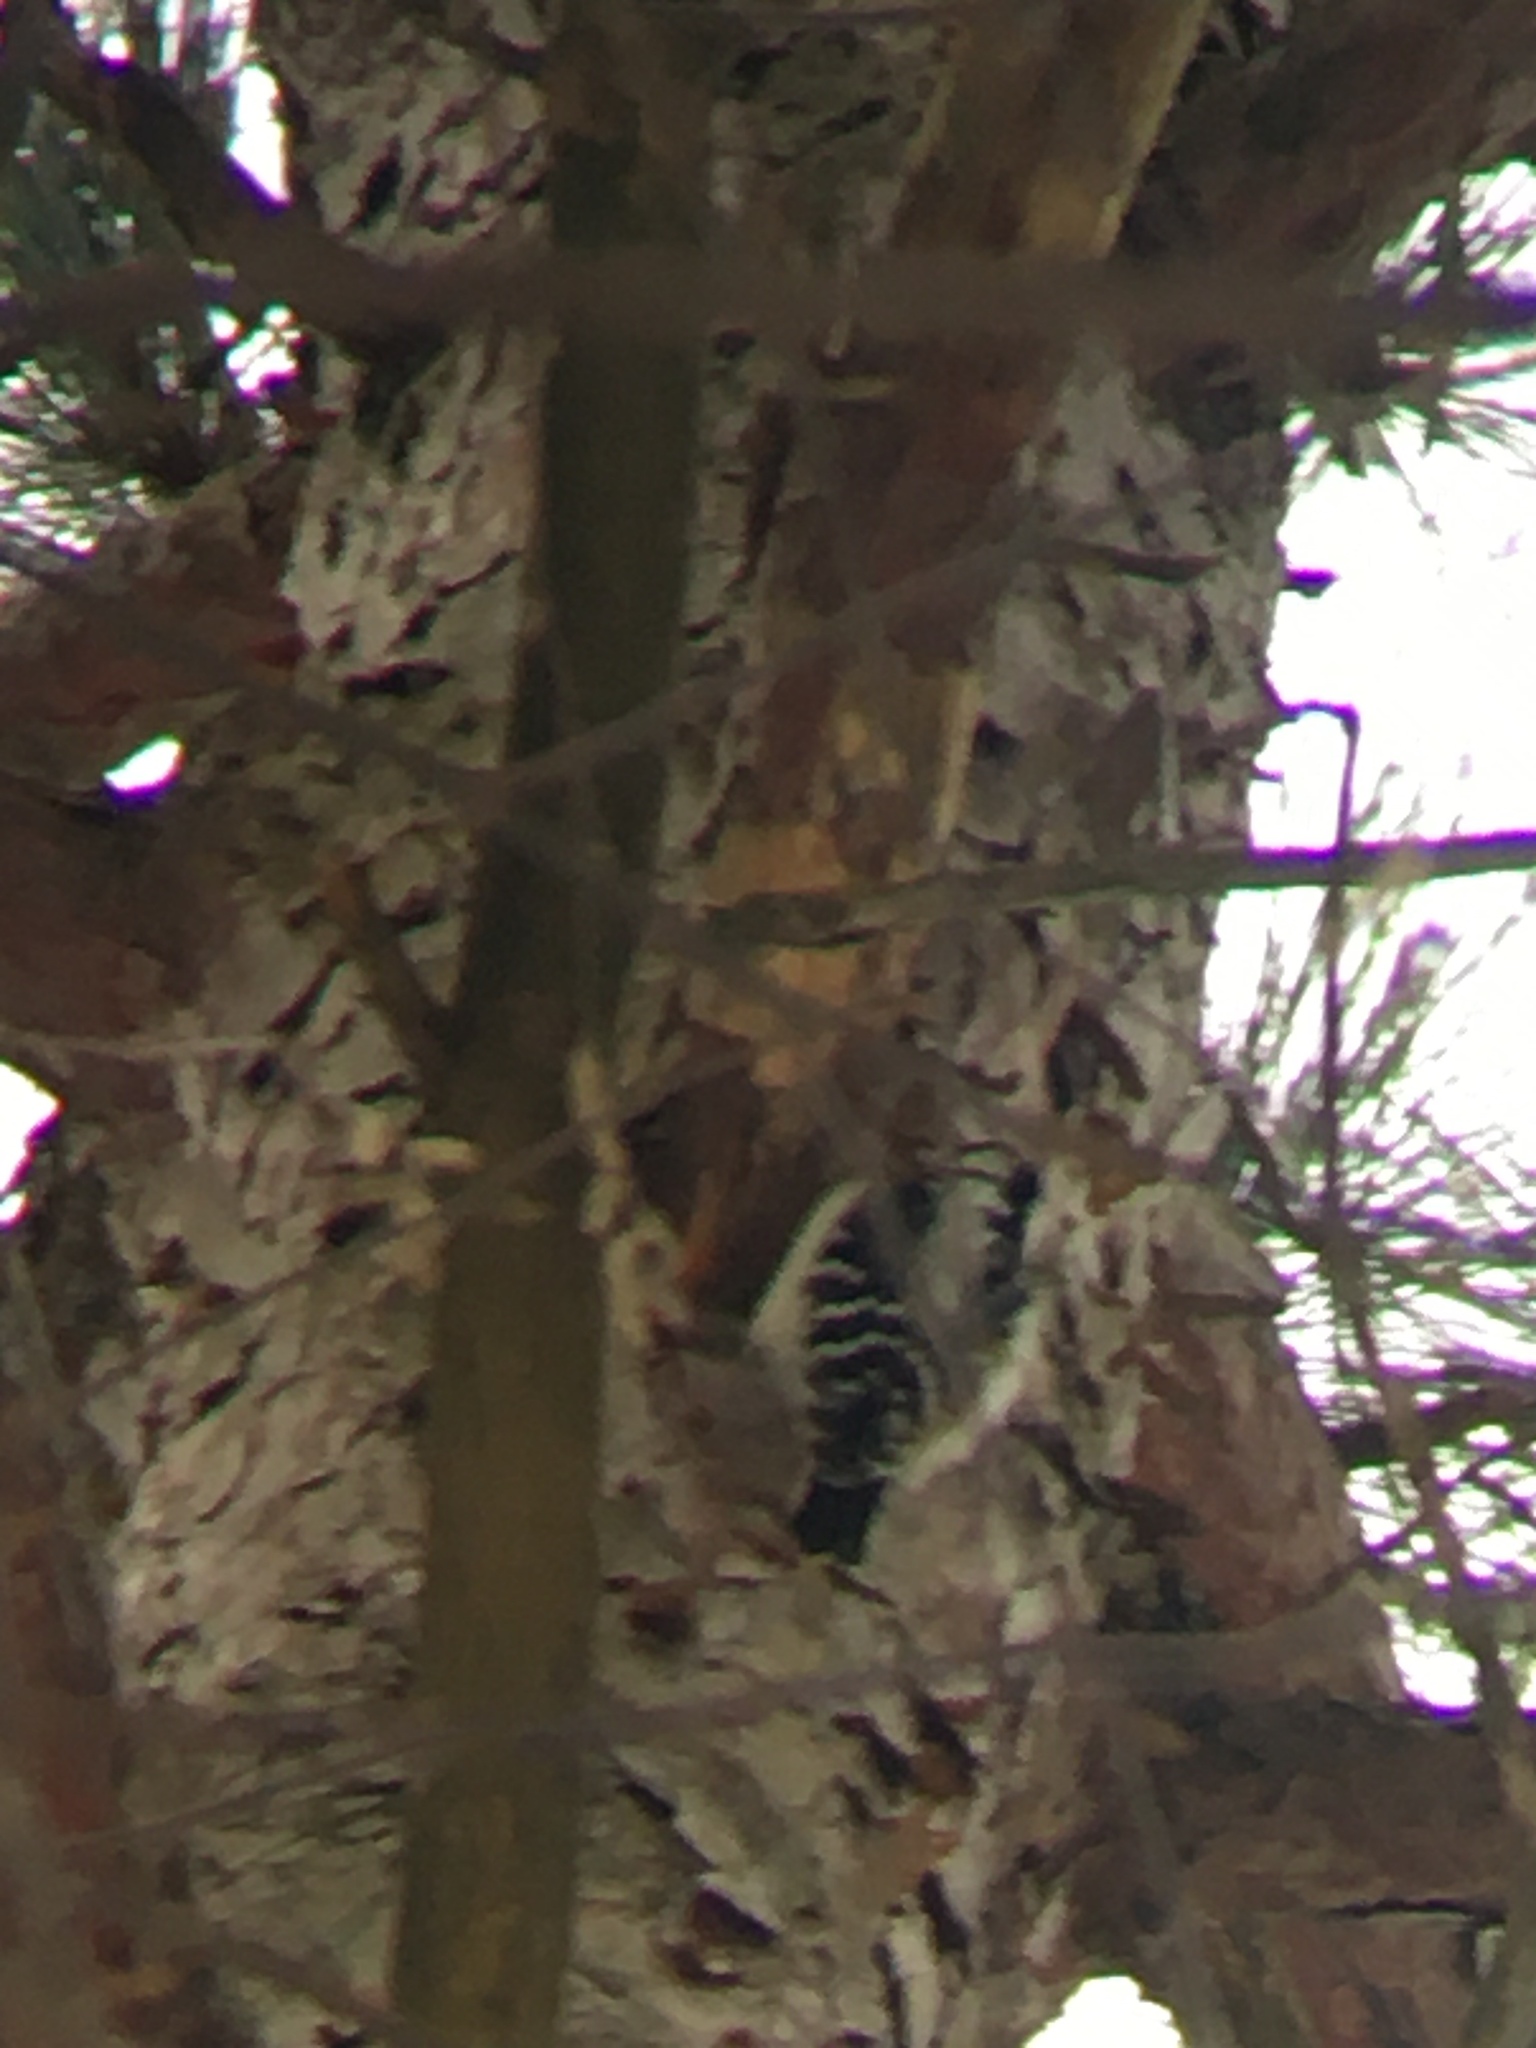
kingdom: Animalia
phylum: Chordata
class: Aves
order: Piciformes
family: Picidae
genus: Dryobates
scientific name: Dryobates pubescens
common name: Downy woodpecker
